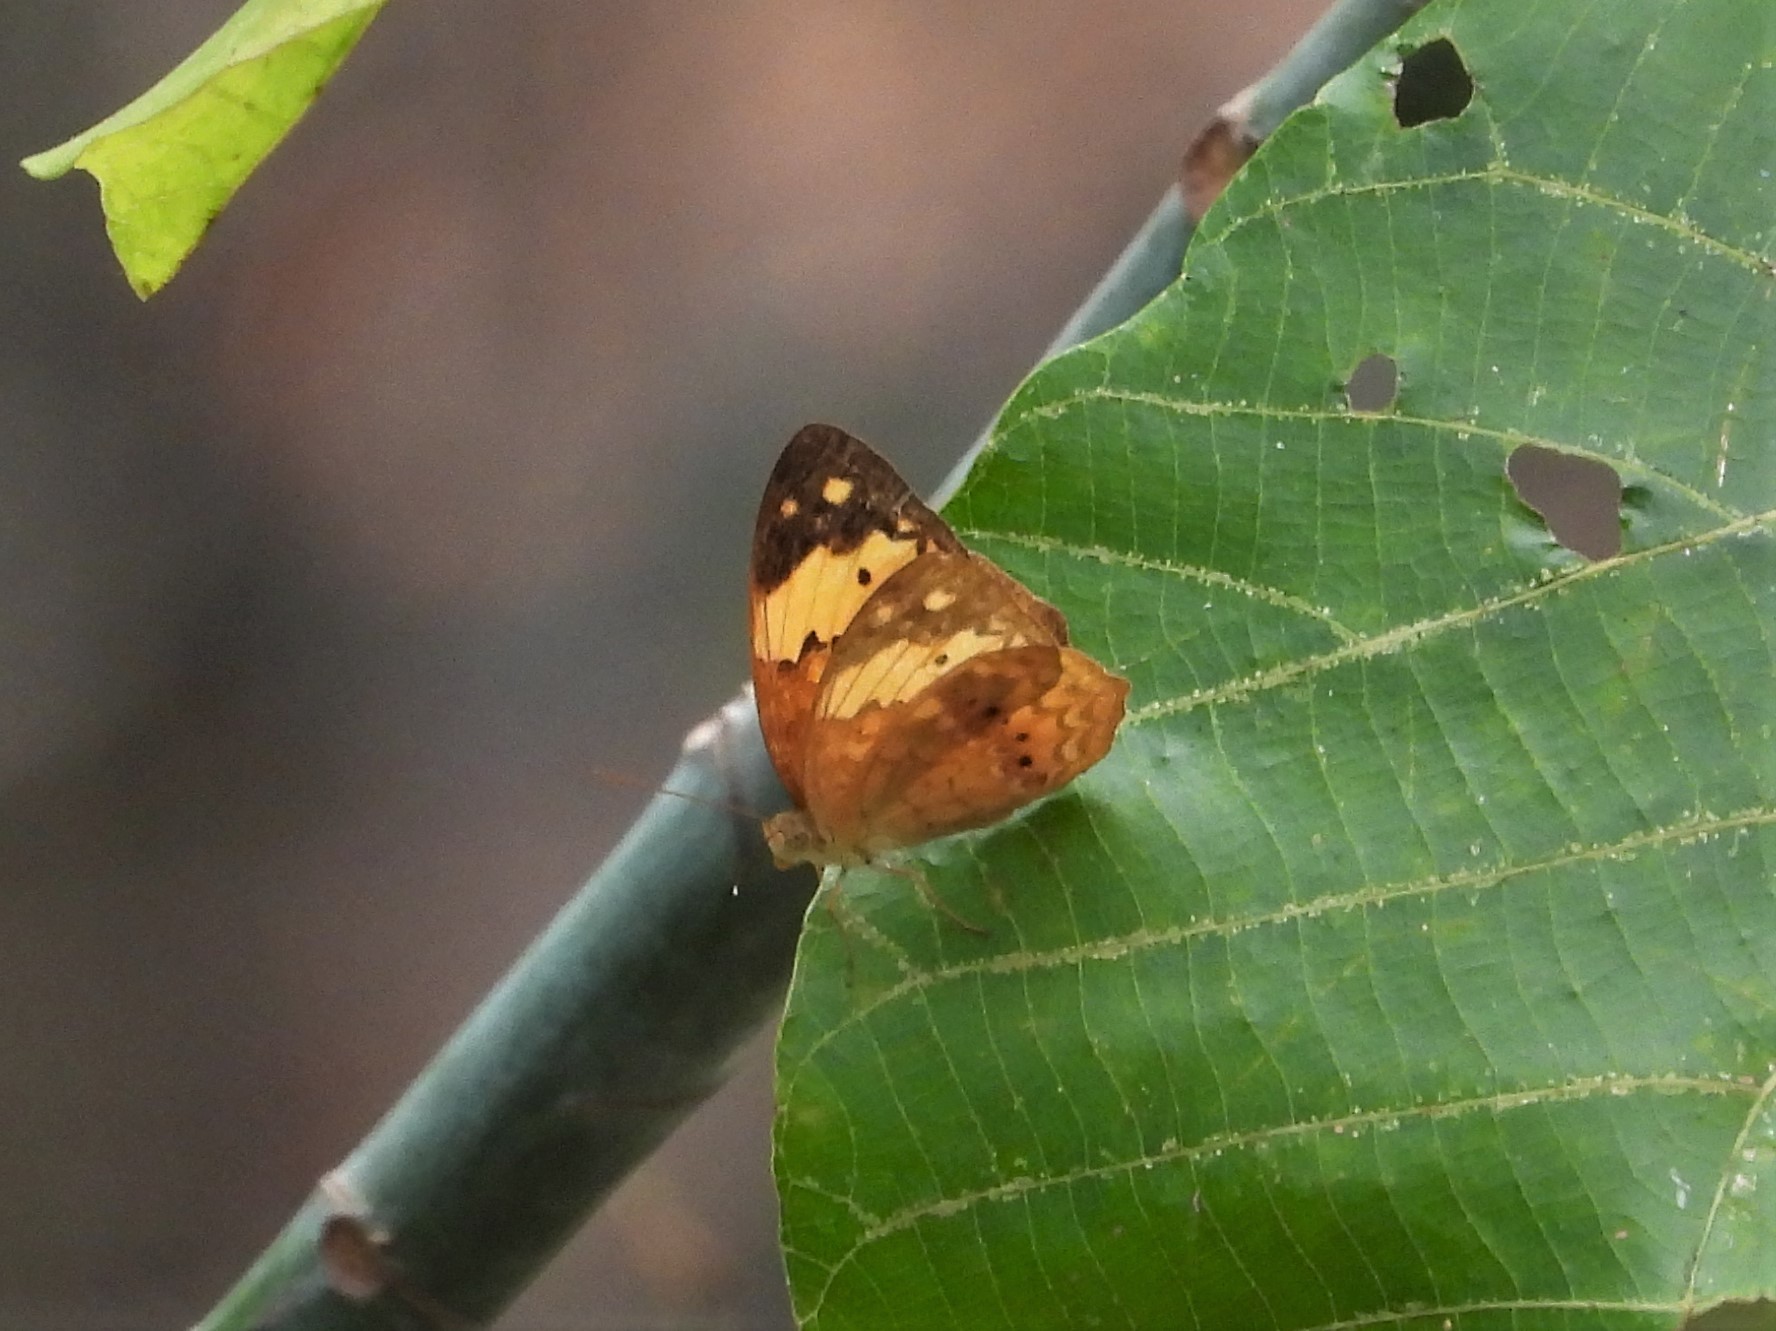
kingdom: Animalia
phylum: Arthropoda
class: Insecta
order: Lepidoptera
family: Nymphalidae
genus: Cupha
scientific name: Cupha erymanthis
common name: Rustic
